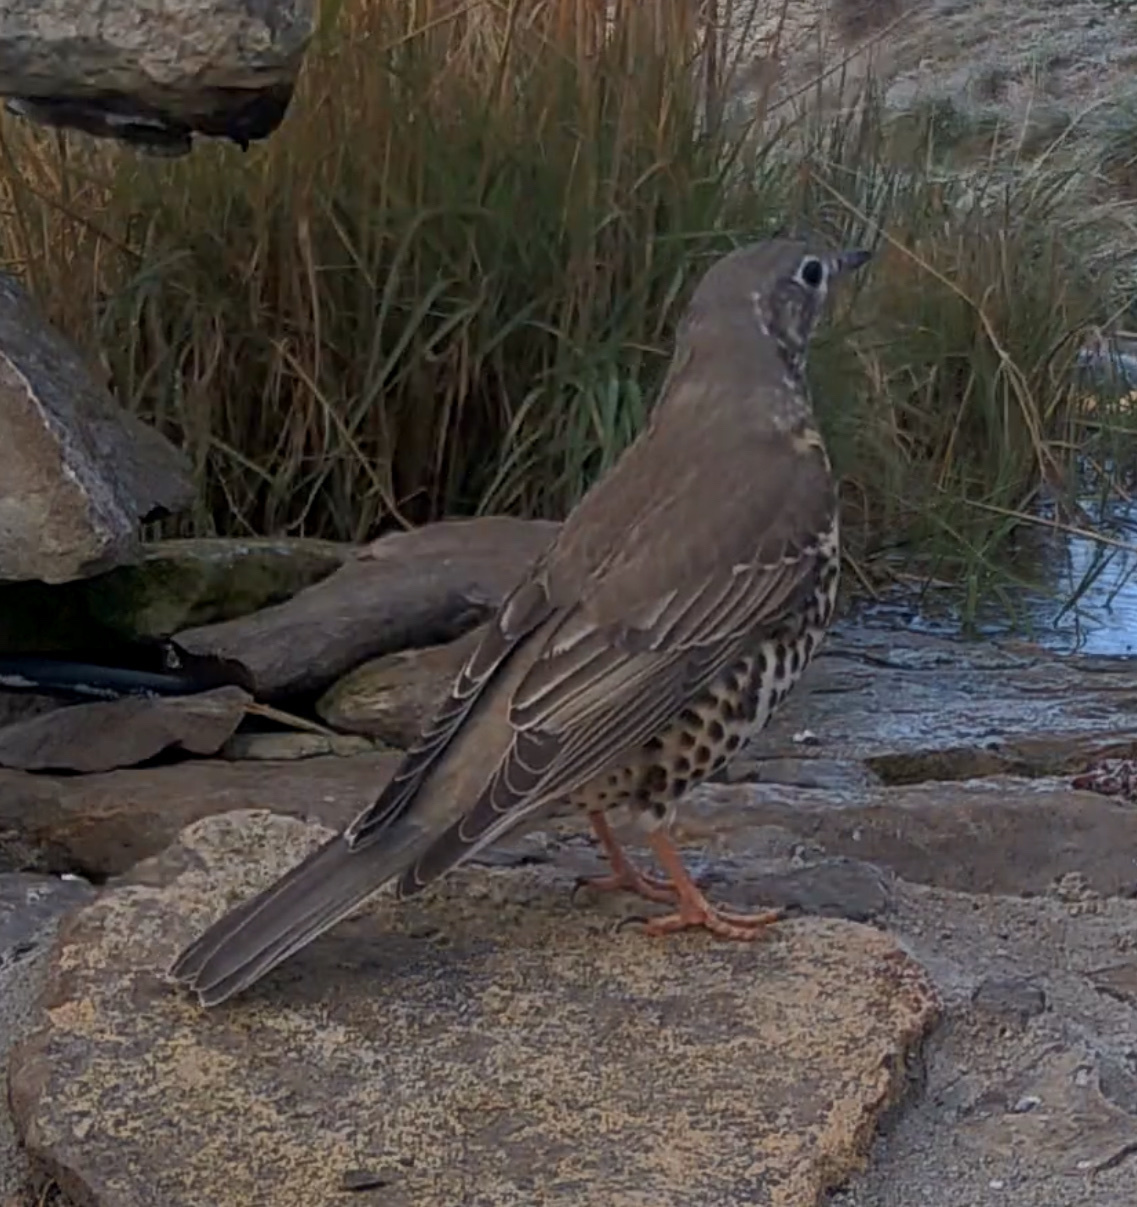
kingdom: Animalia
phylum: Chordata
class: Aves
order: Passeriformes
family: Turdidae
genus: Turdus
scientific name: Turdus viscivorus
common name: Mistle thrush
